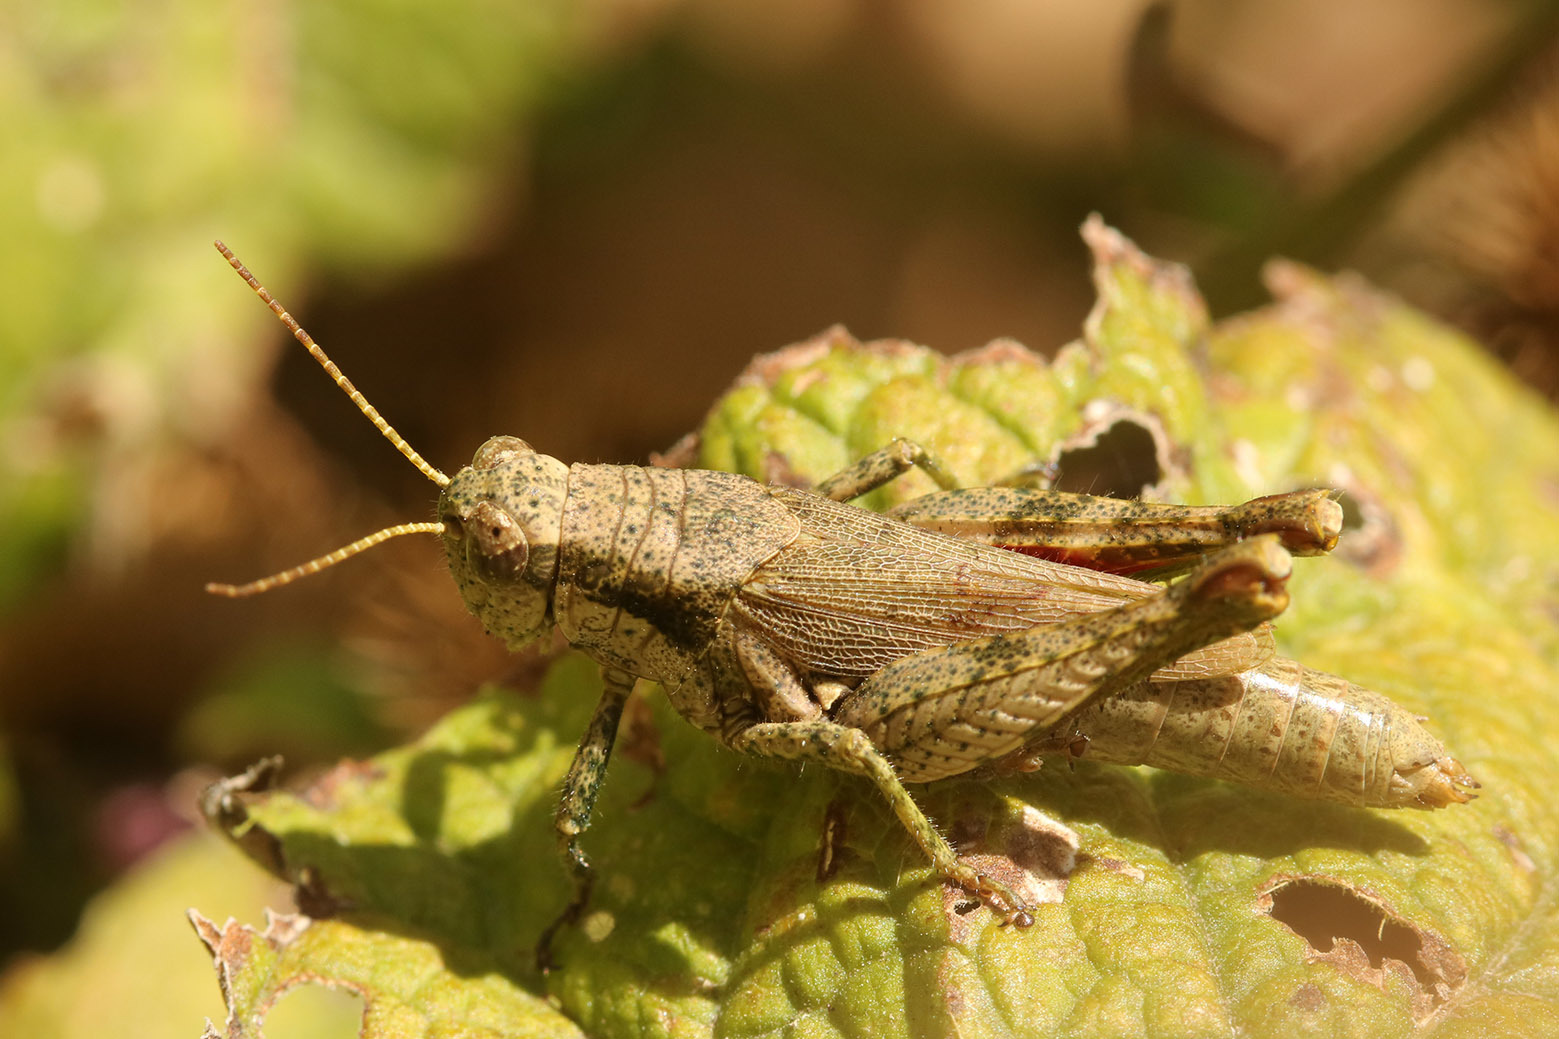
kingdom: Animalia
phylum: Arthropoda
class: Insecta
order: Orthoptera
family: Acrididae
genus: Ronderosia
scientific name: Ronderosia bergii
